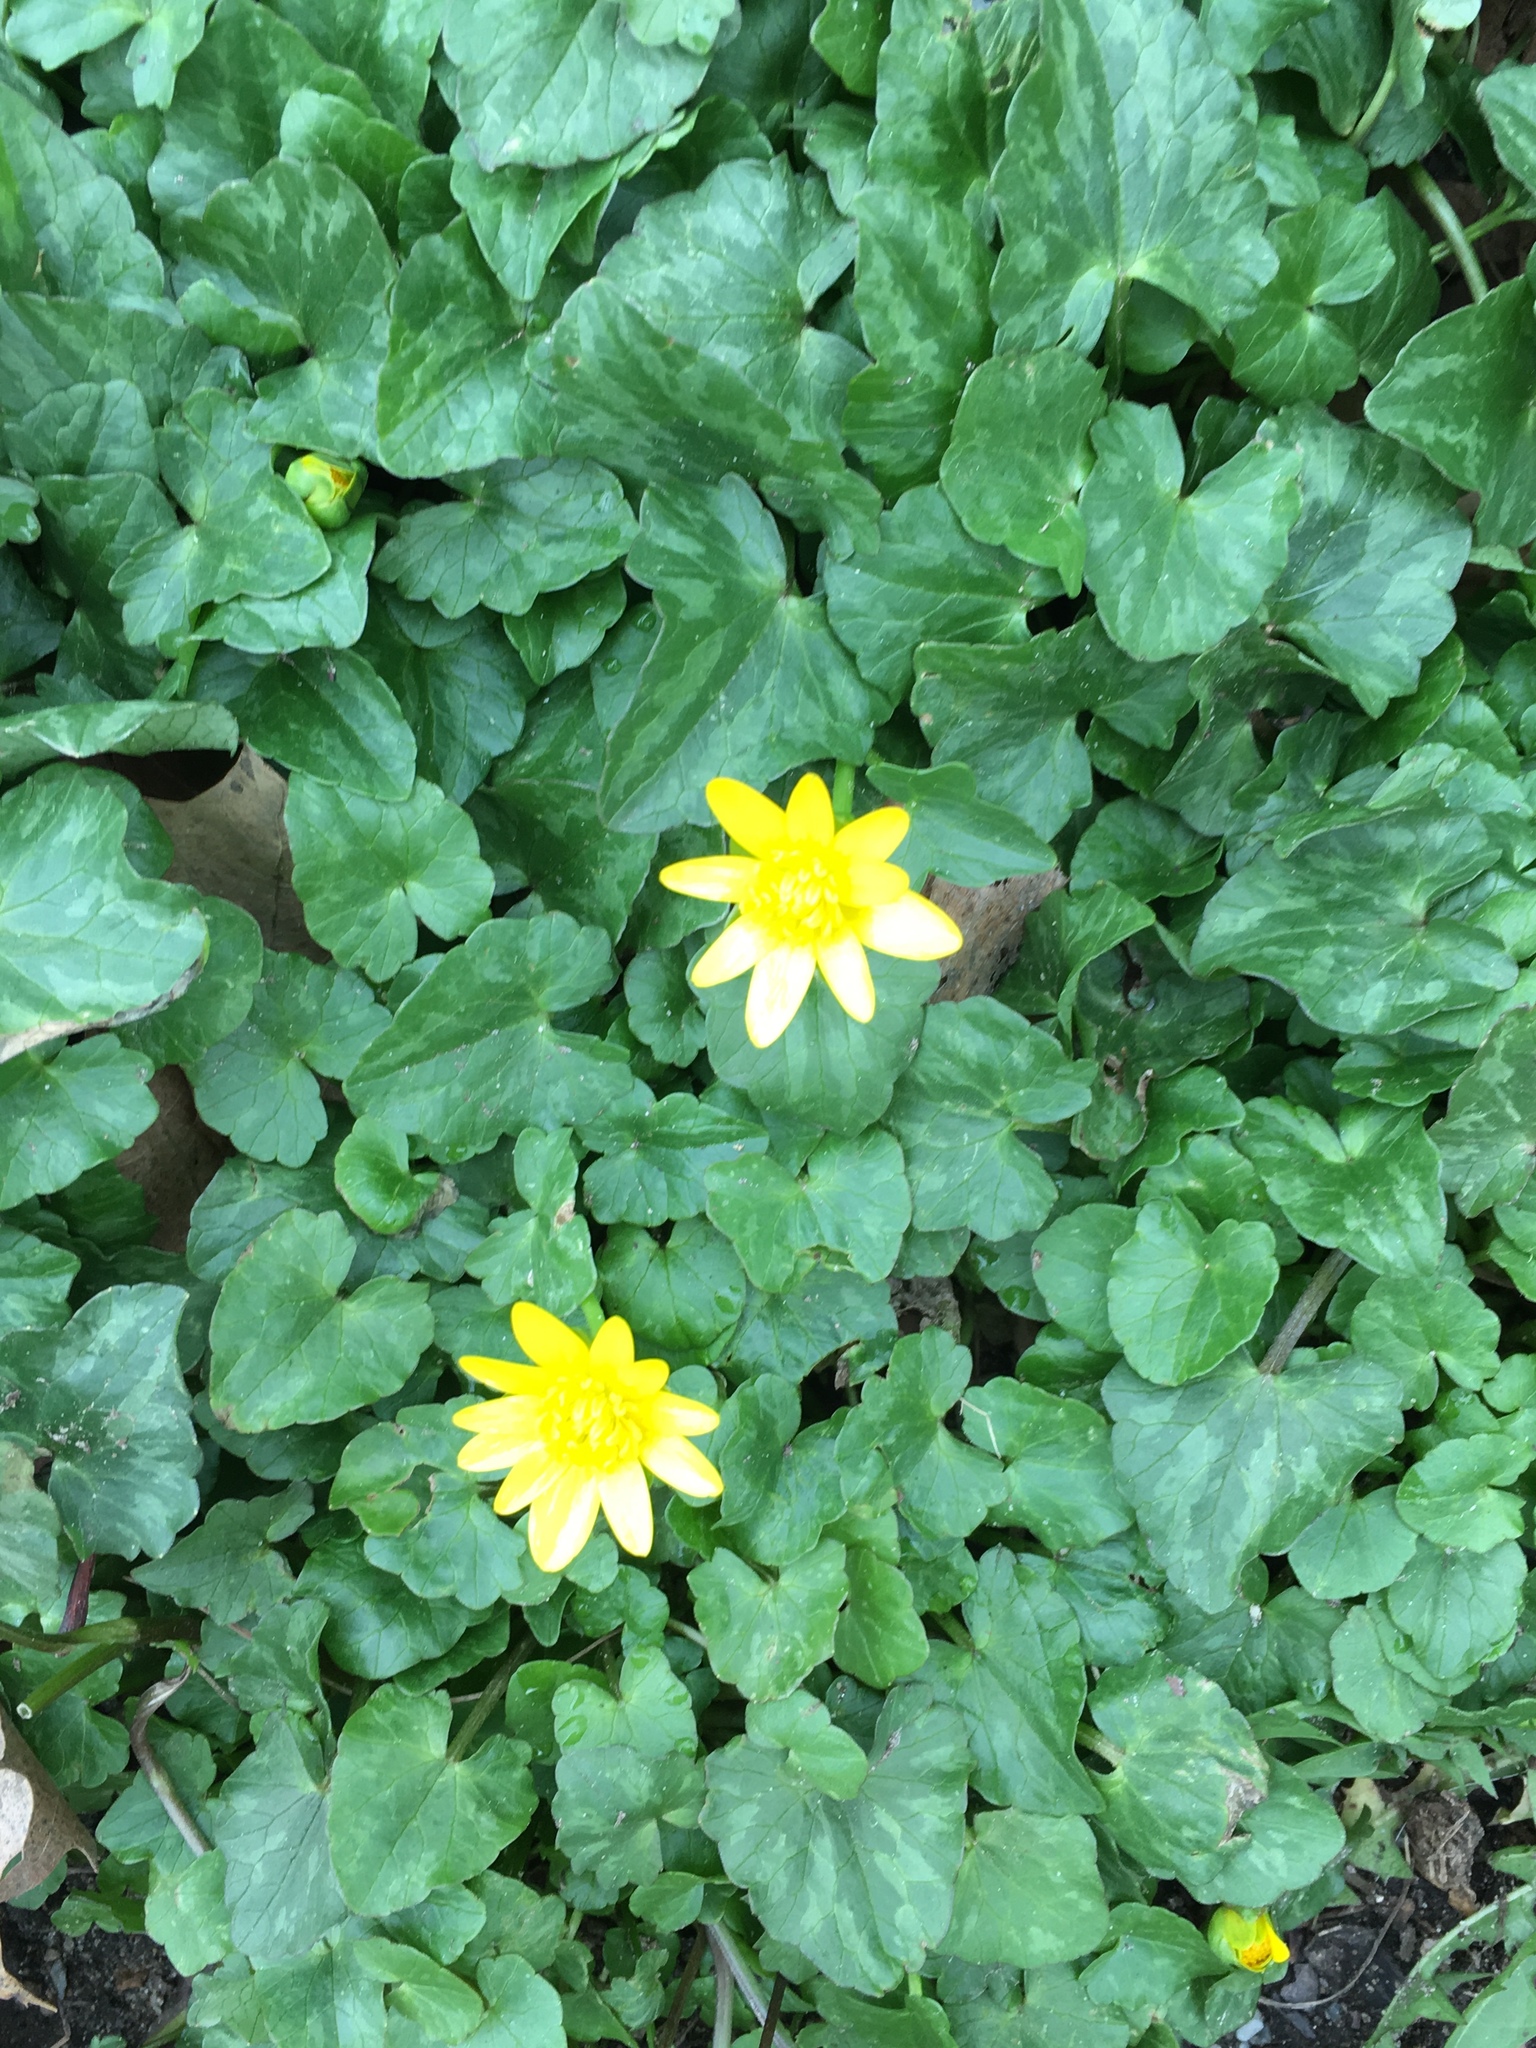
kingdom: Plantae
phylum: Tracheophyta
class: Magnoliopsida
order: Ranunculales
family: Ranunculaceae
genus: Ficaria
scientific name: Ficaria verna
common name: Lesser celandine
